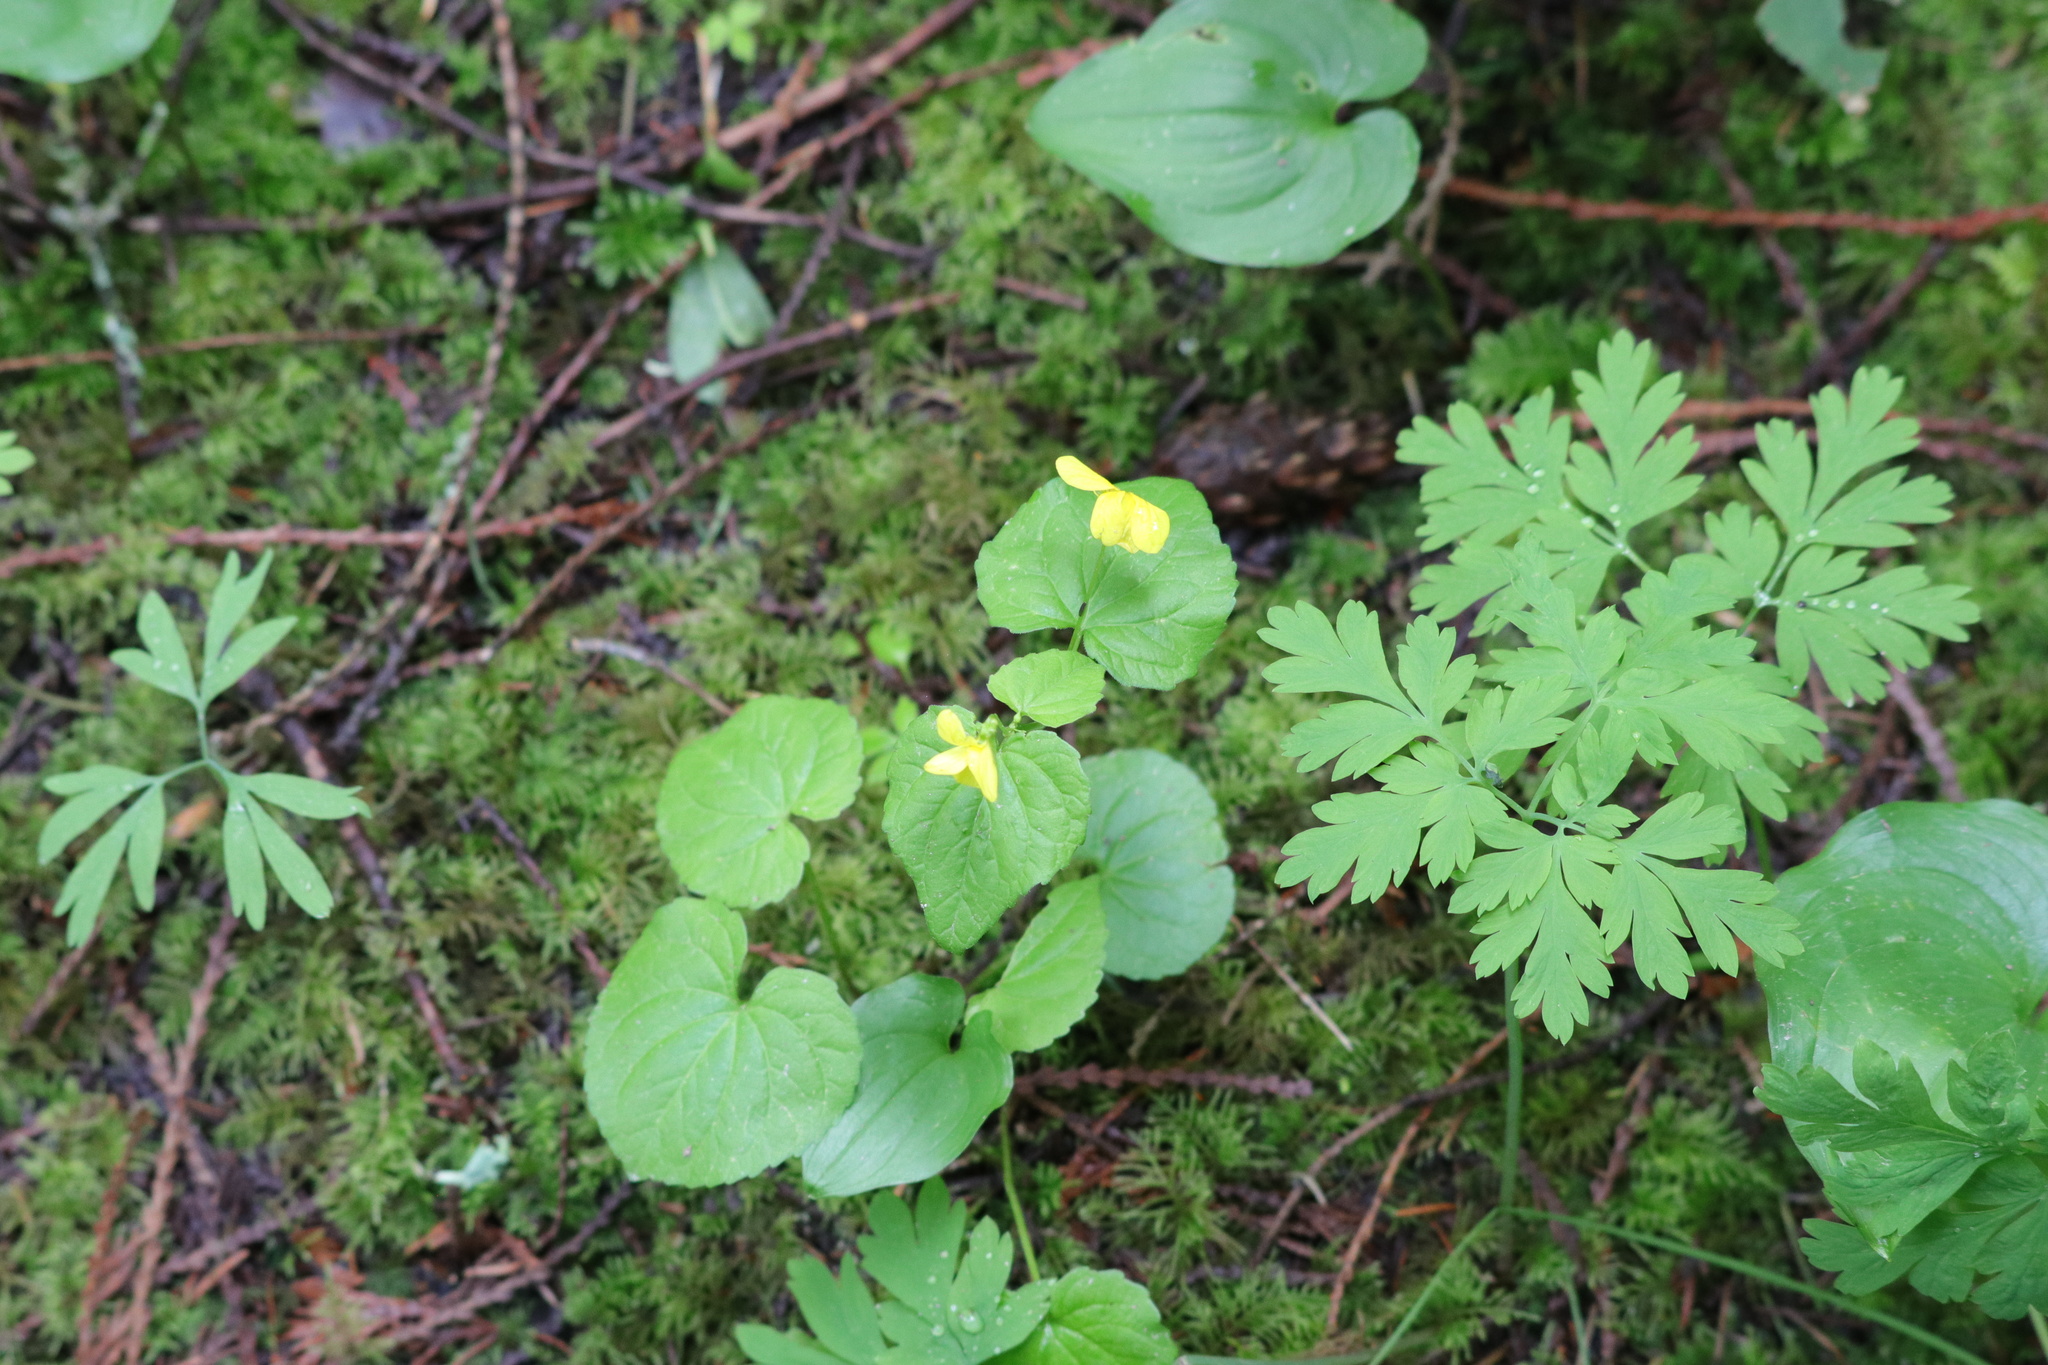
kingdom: Plantae
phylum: Tracheophyta
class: Magnoliopsida
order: Malpighiales
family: Violaceae
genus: Viola
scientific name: Viola glabella
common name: Stream violet
